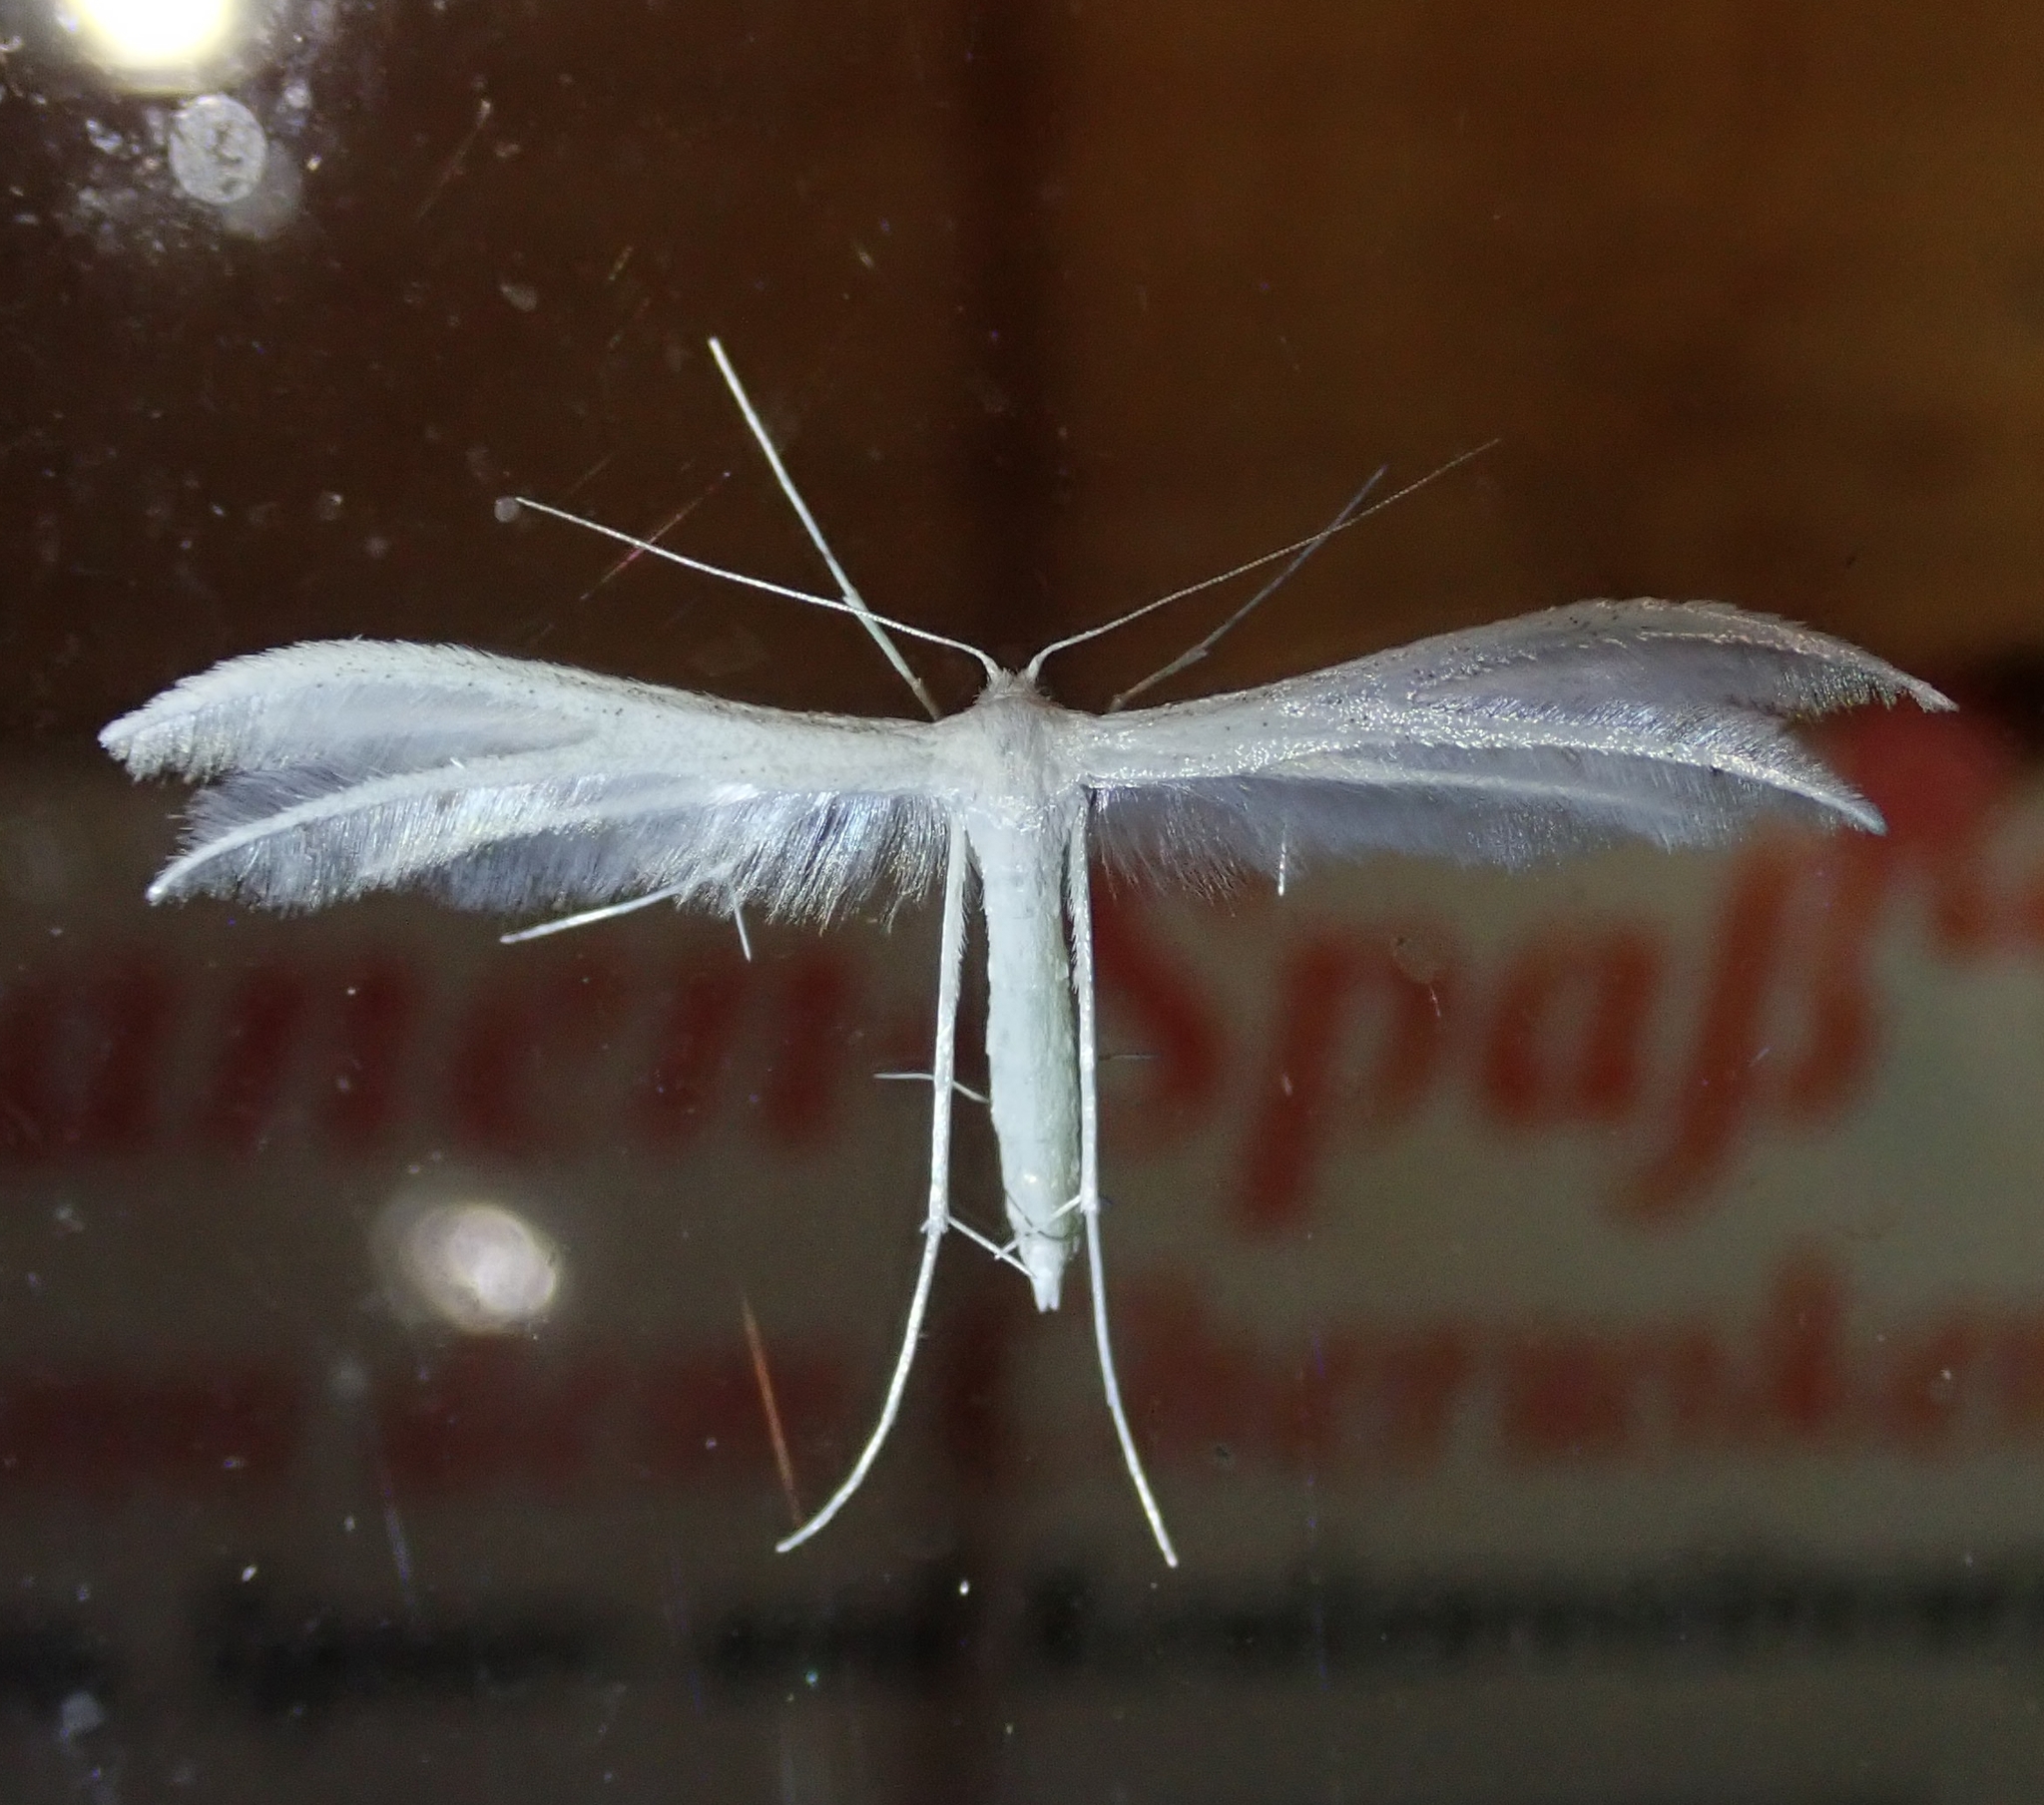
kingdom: Animalia
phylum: Arthropoda
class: Insecta
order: Lepidoptera
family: Pterophoridae
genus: Pterophorus
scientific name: Pterophorus pentadactyla
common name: White plume moth
